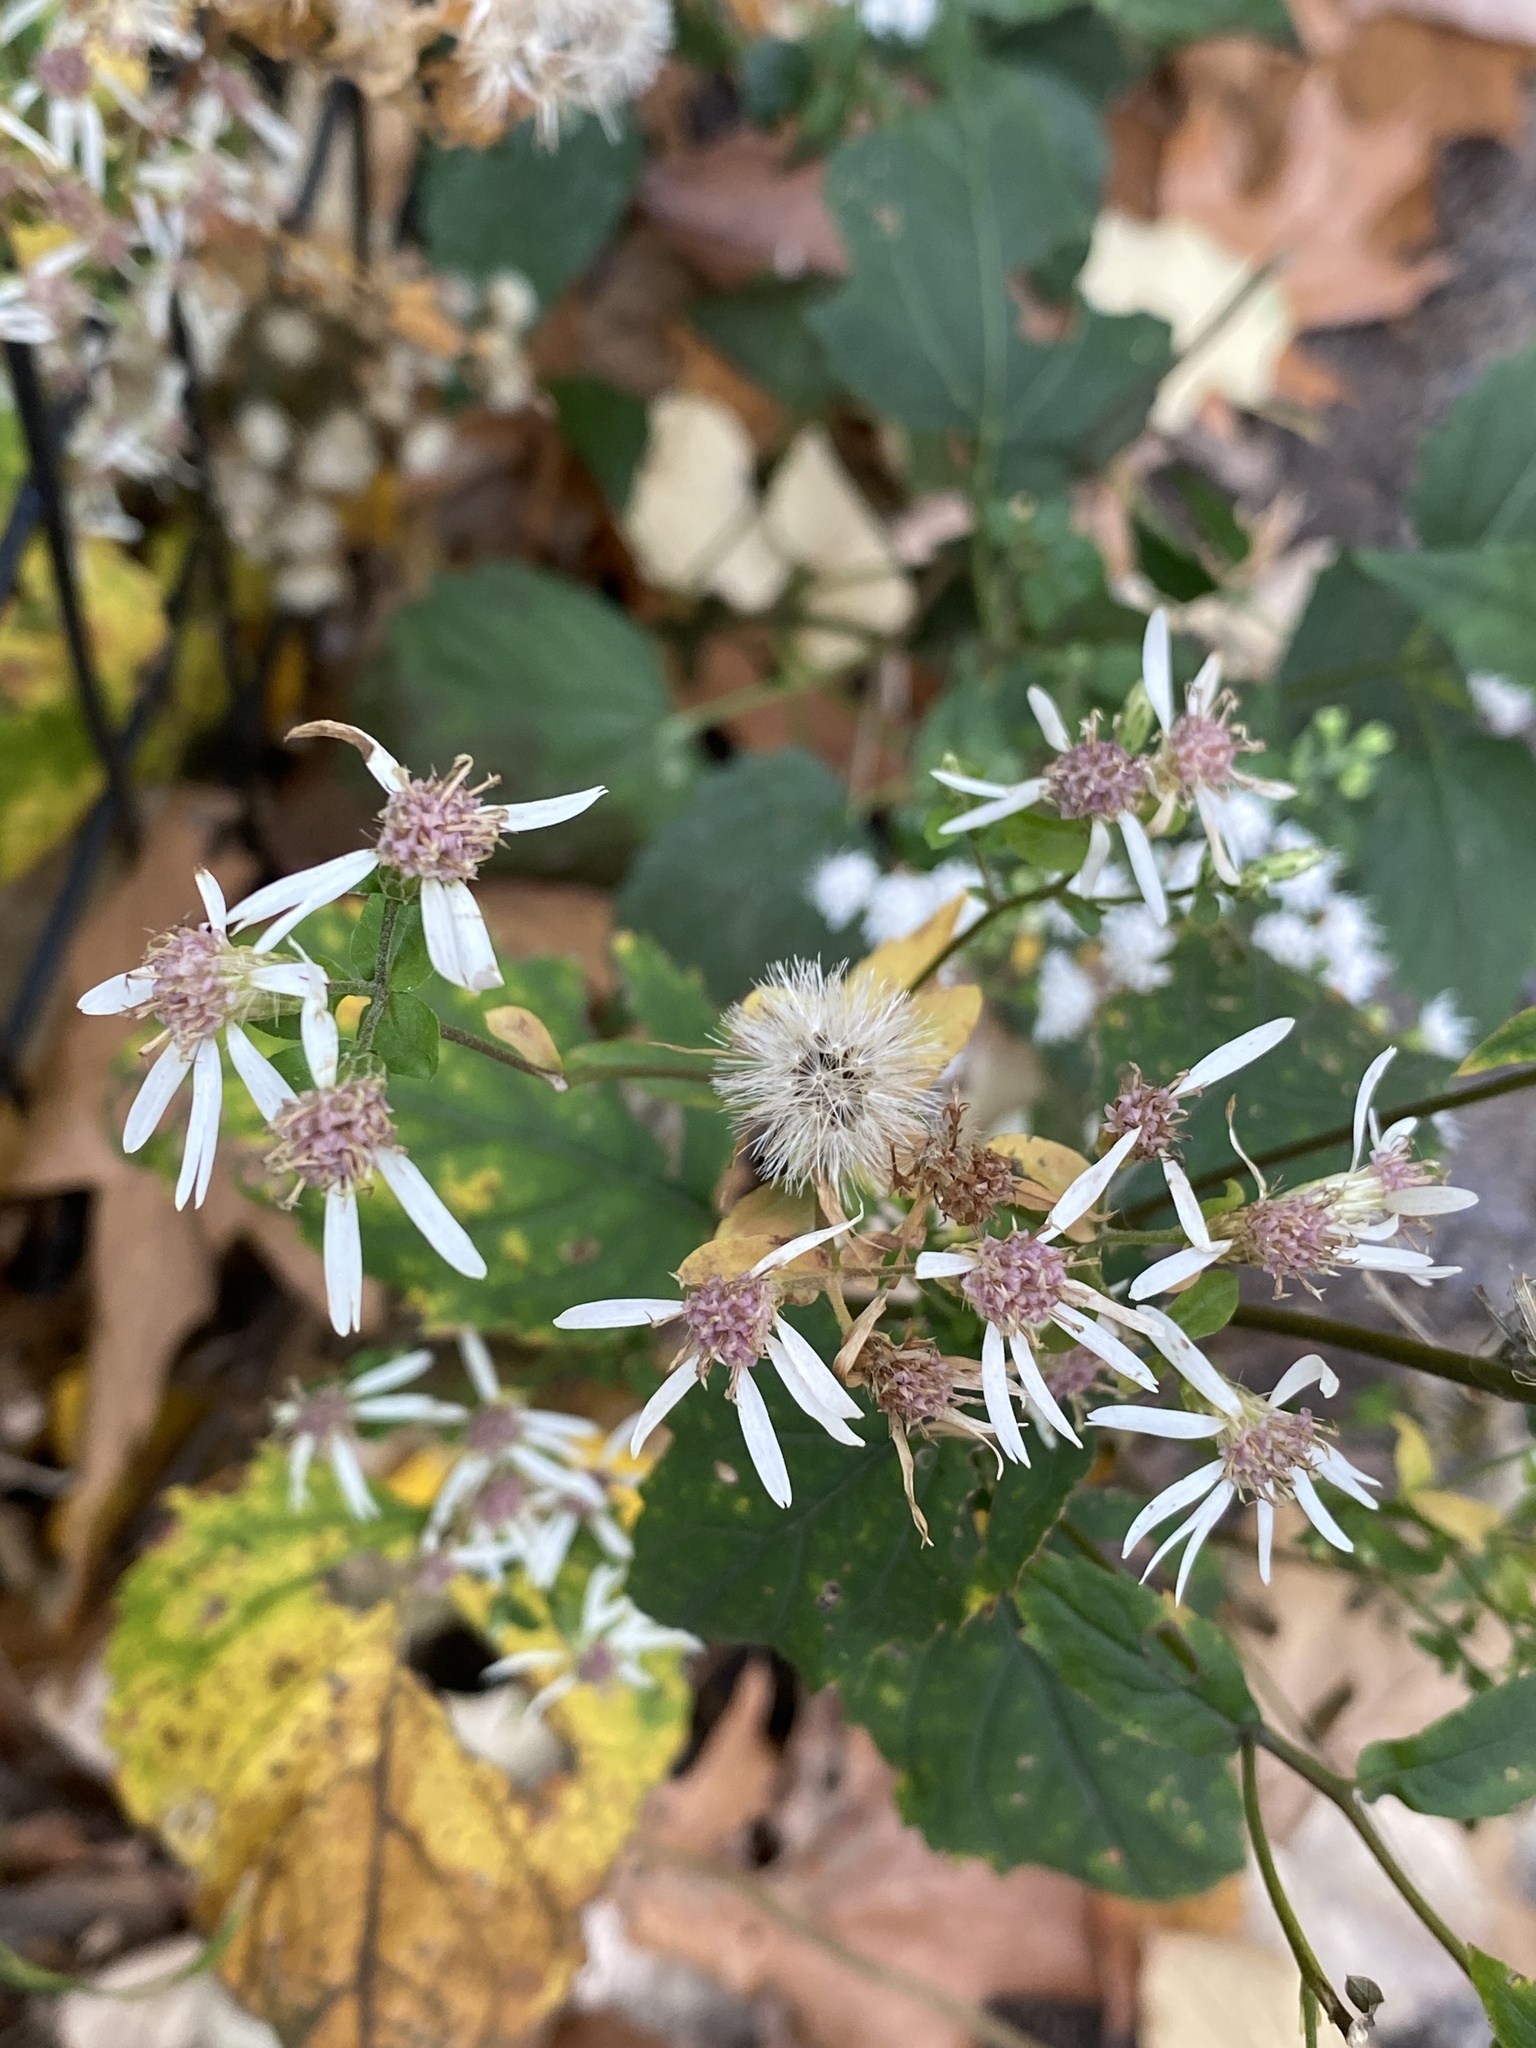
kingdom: Plantae
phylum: Tracheophyta
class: Magnoliopsida
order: Asterales
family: Asteraceae
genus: Eurybia
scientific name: Eurybia divaricata
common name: White wood aster
